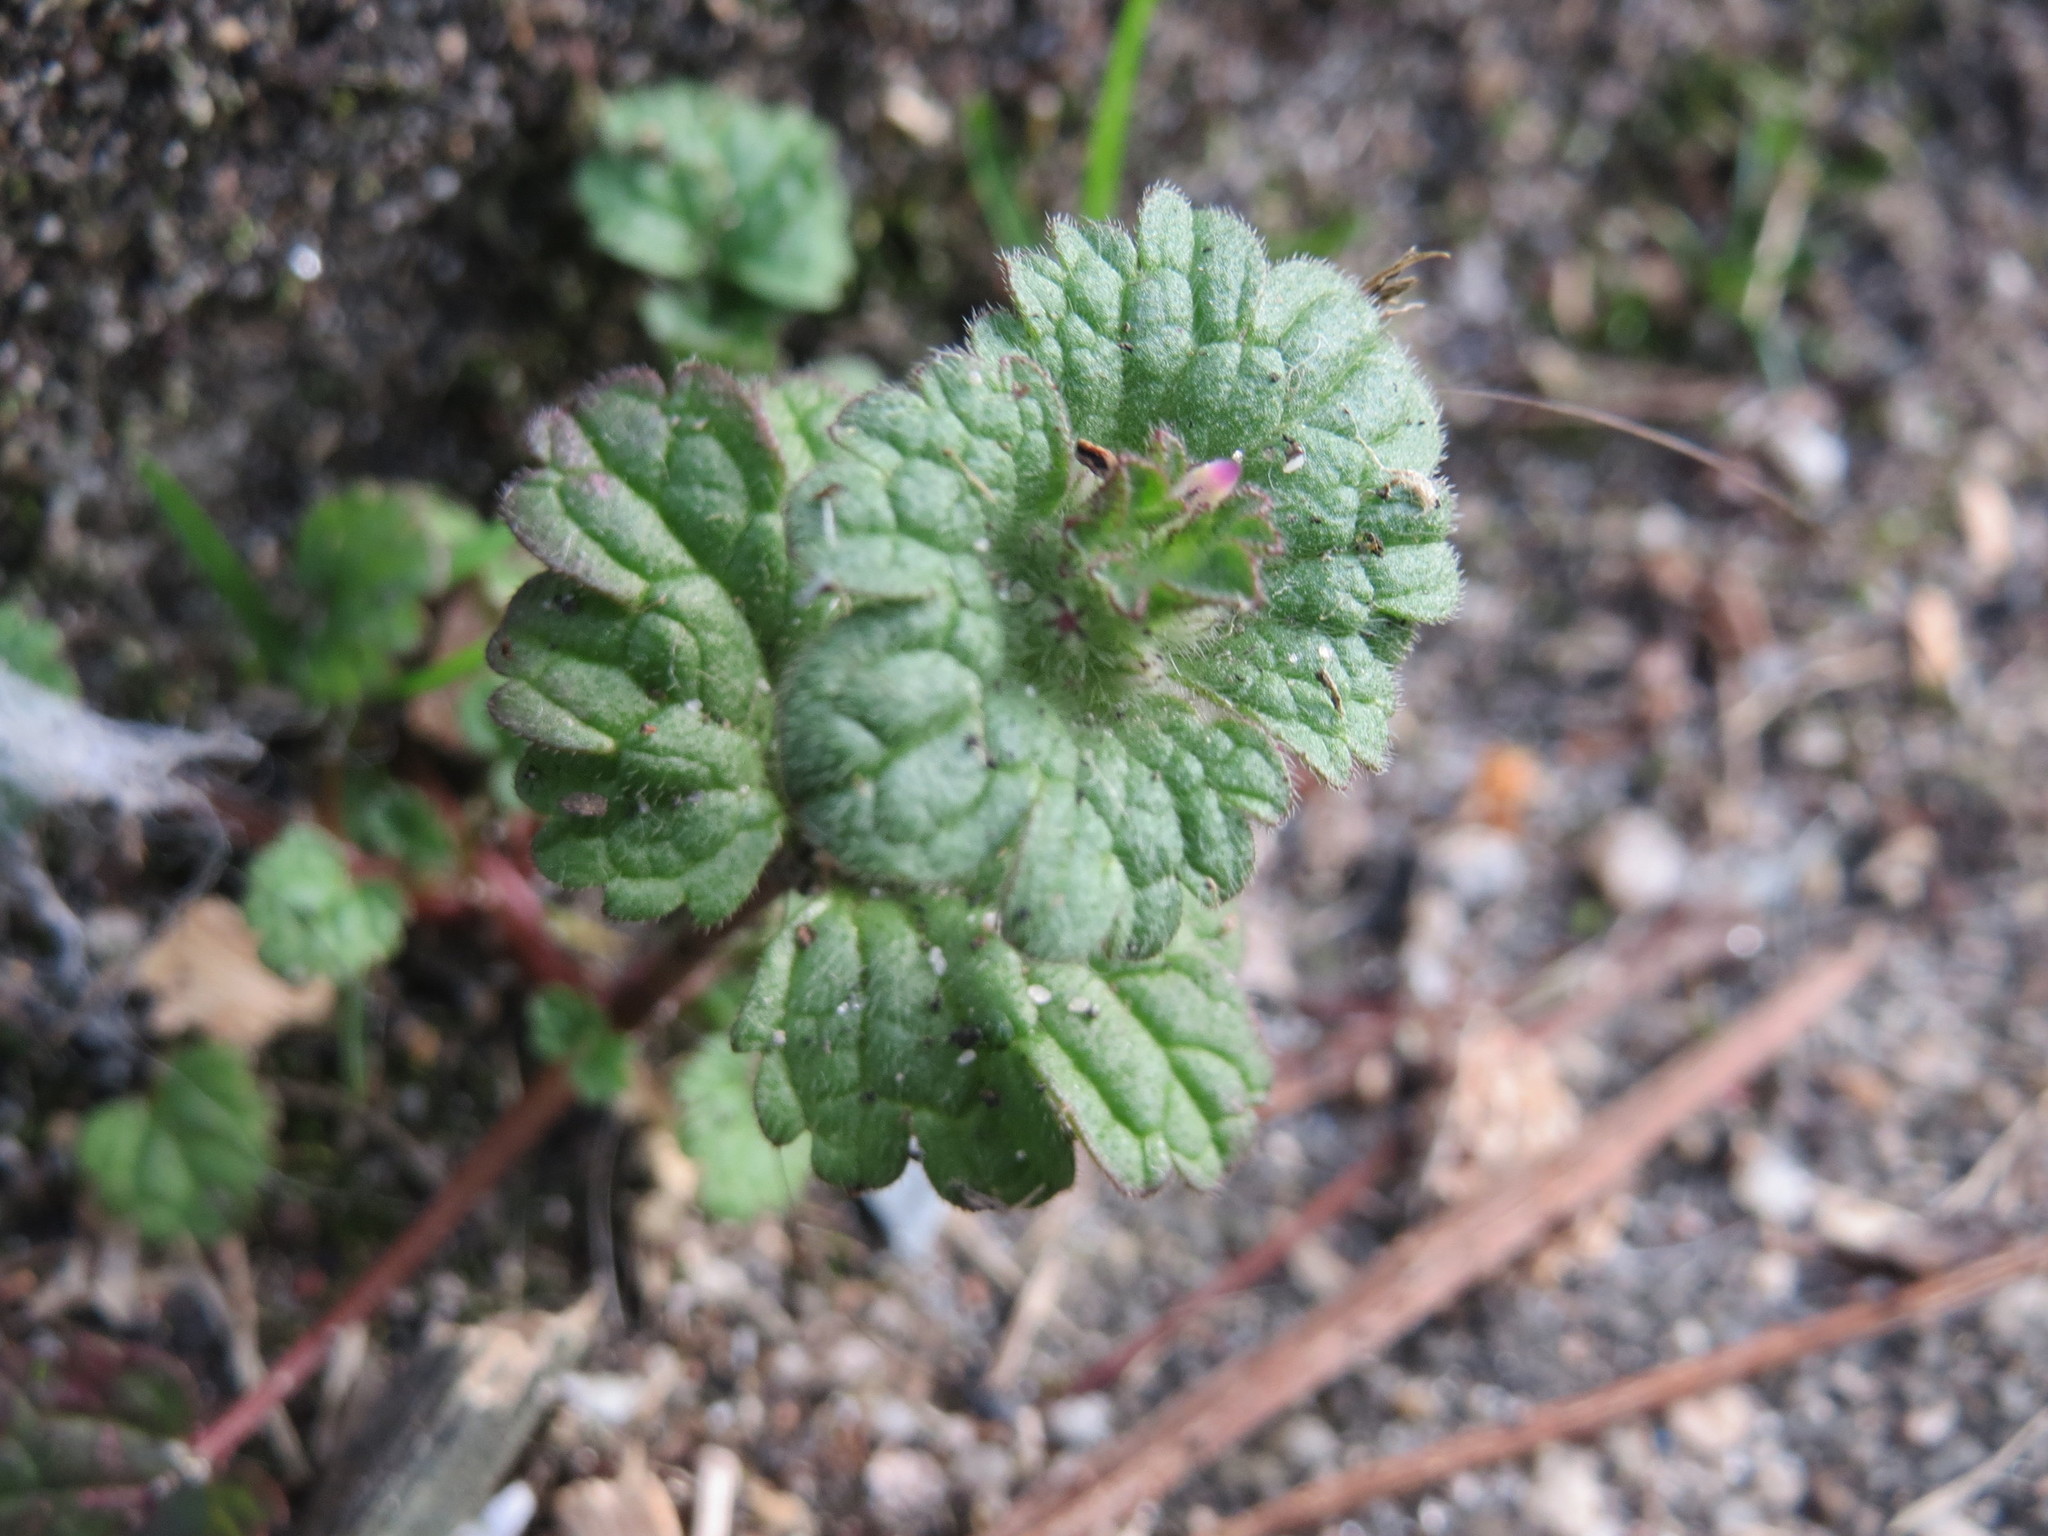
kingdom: Plantae
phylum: Tracheophyta
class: Magnoliopsida
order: Lamiales
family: Lamiaceae
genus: Lamium
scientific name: Lamium amplexicaule
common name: Henbit dead-nettle
